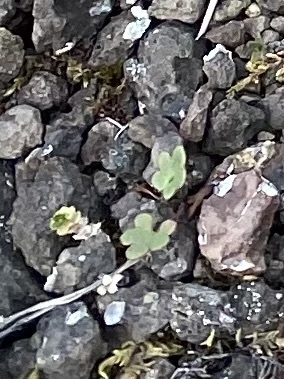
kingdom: Plantae
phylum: Tracheophyta
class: Magnoliopsida
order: Saxifragales
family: Saxifragaceae
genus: Saxifraga
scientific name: Saxifraga cernua
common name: Drooping saxifrage
